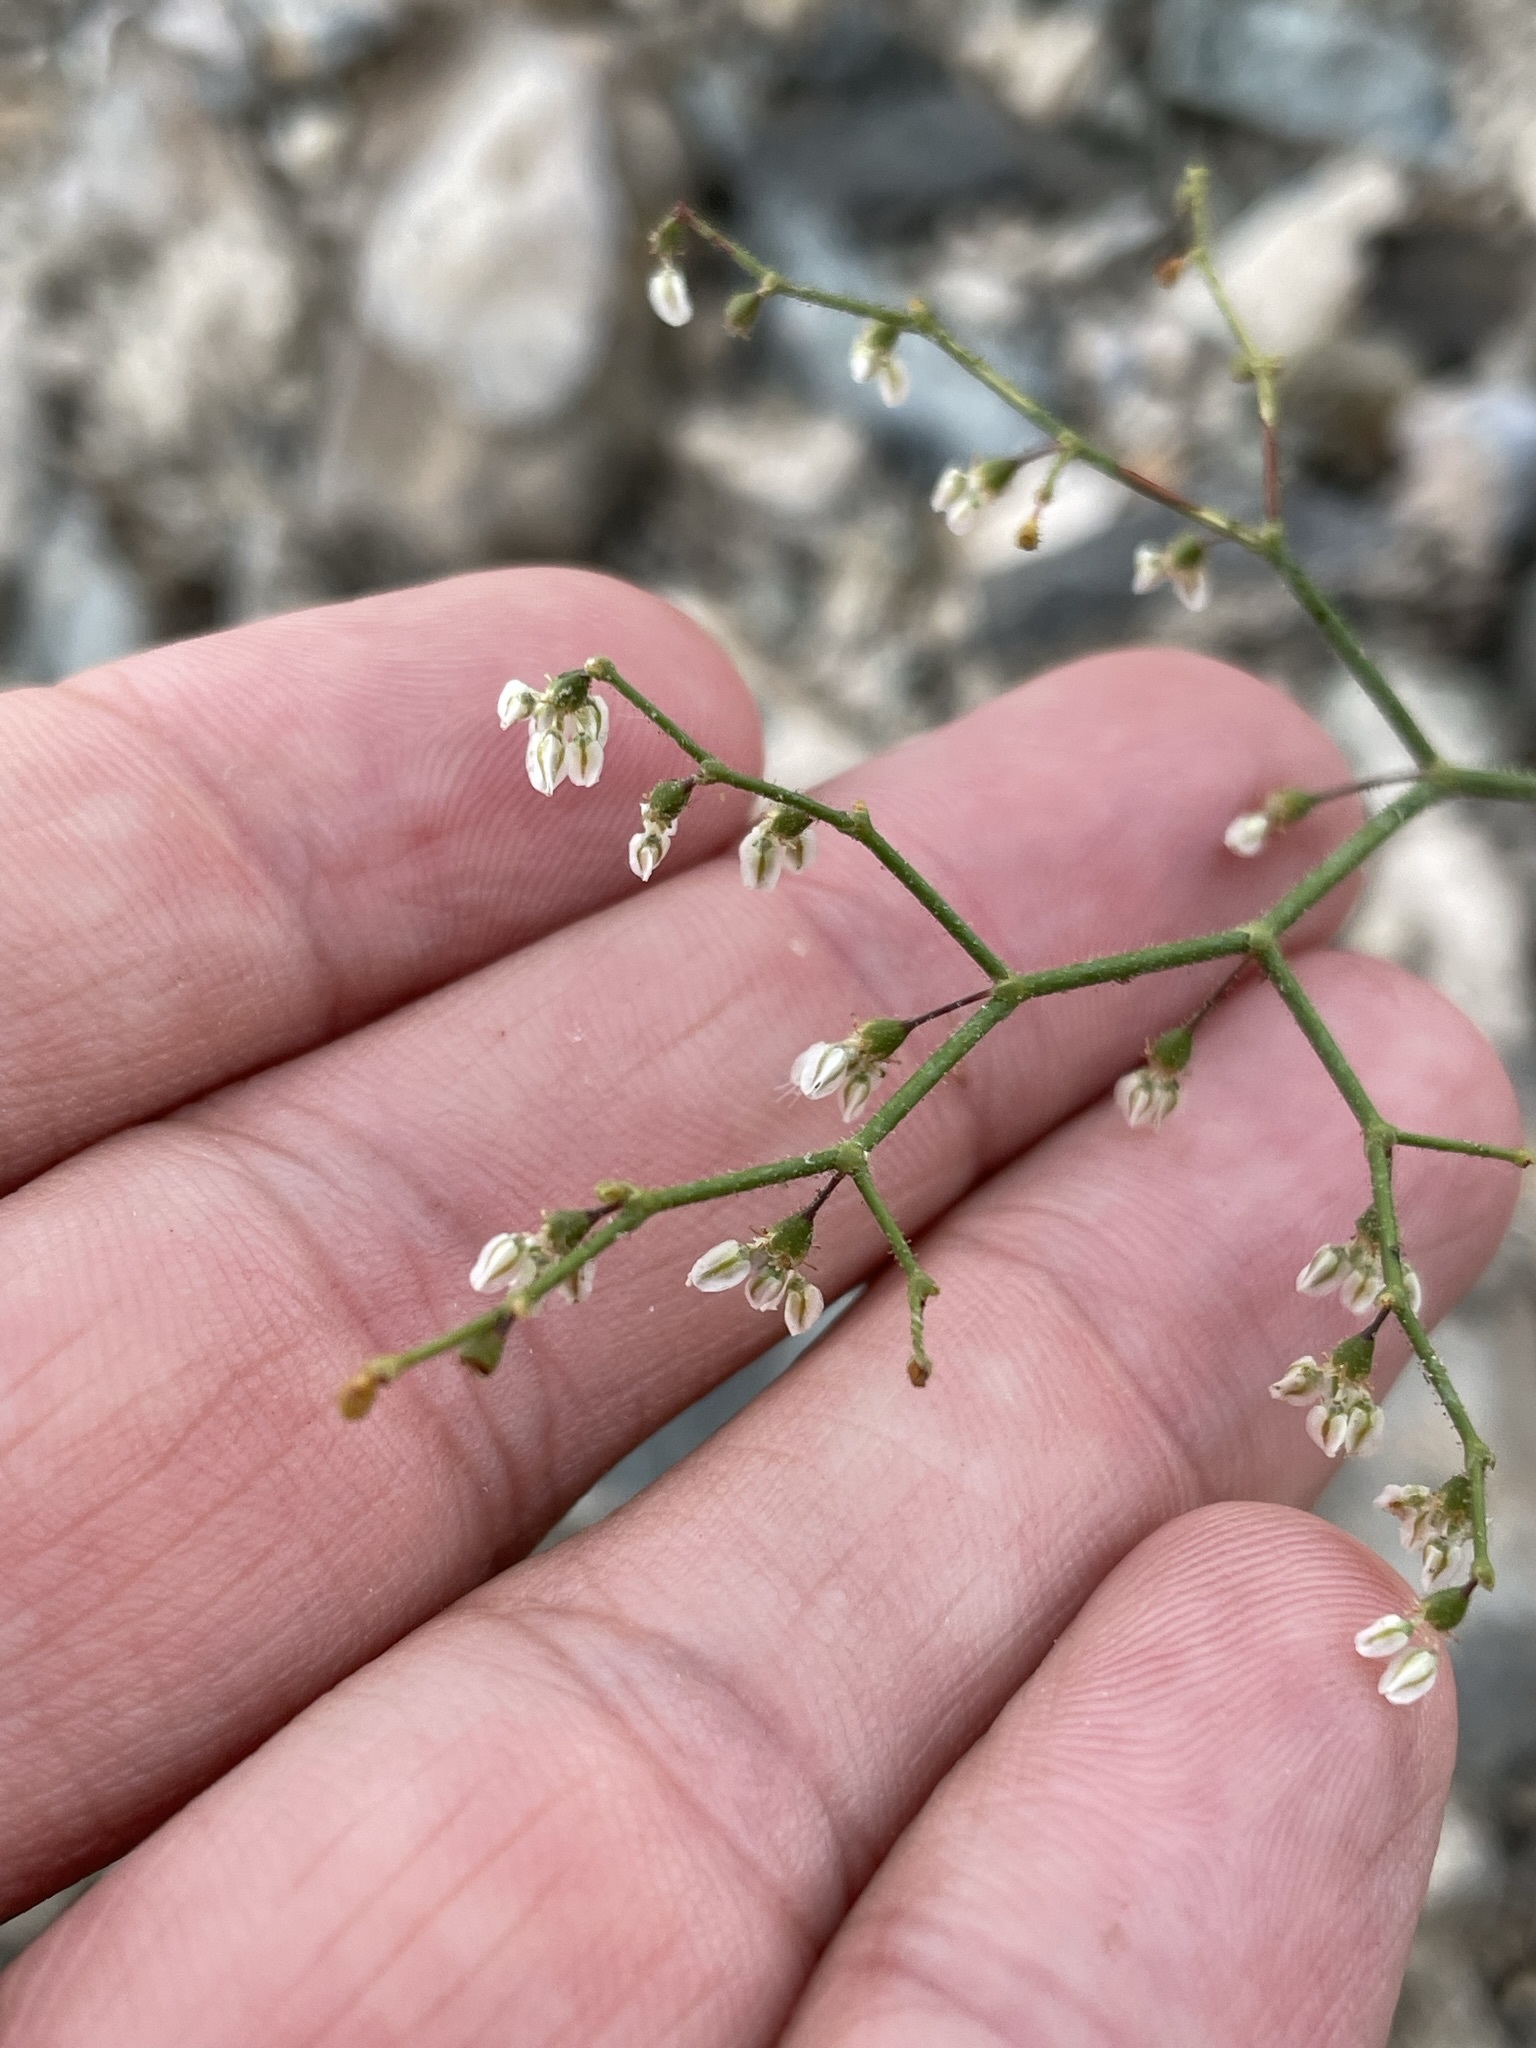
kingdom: Plantae
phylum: Tracheophyta
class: Magnoliopsida
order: Caryophyllales
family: Polygonaceae
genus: Eriogonum
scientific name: Eriogonum brachypodum
